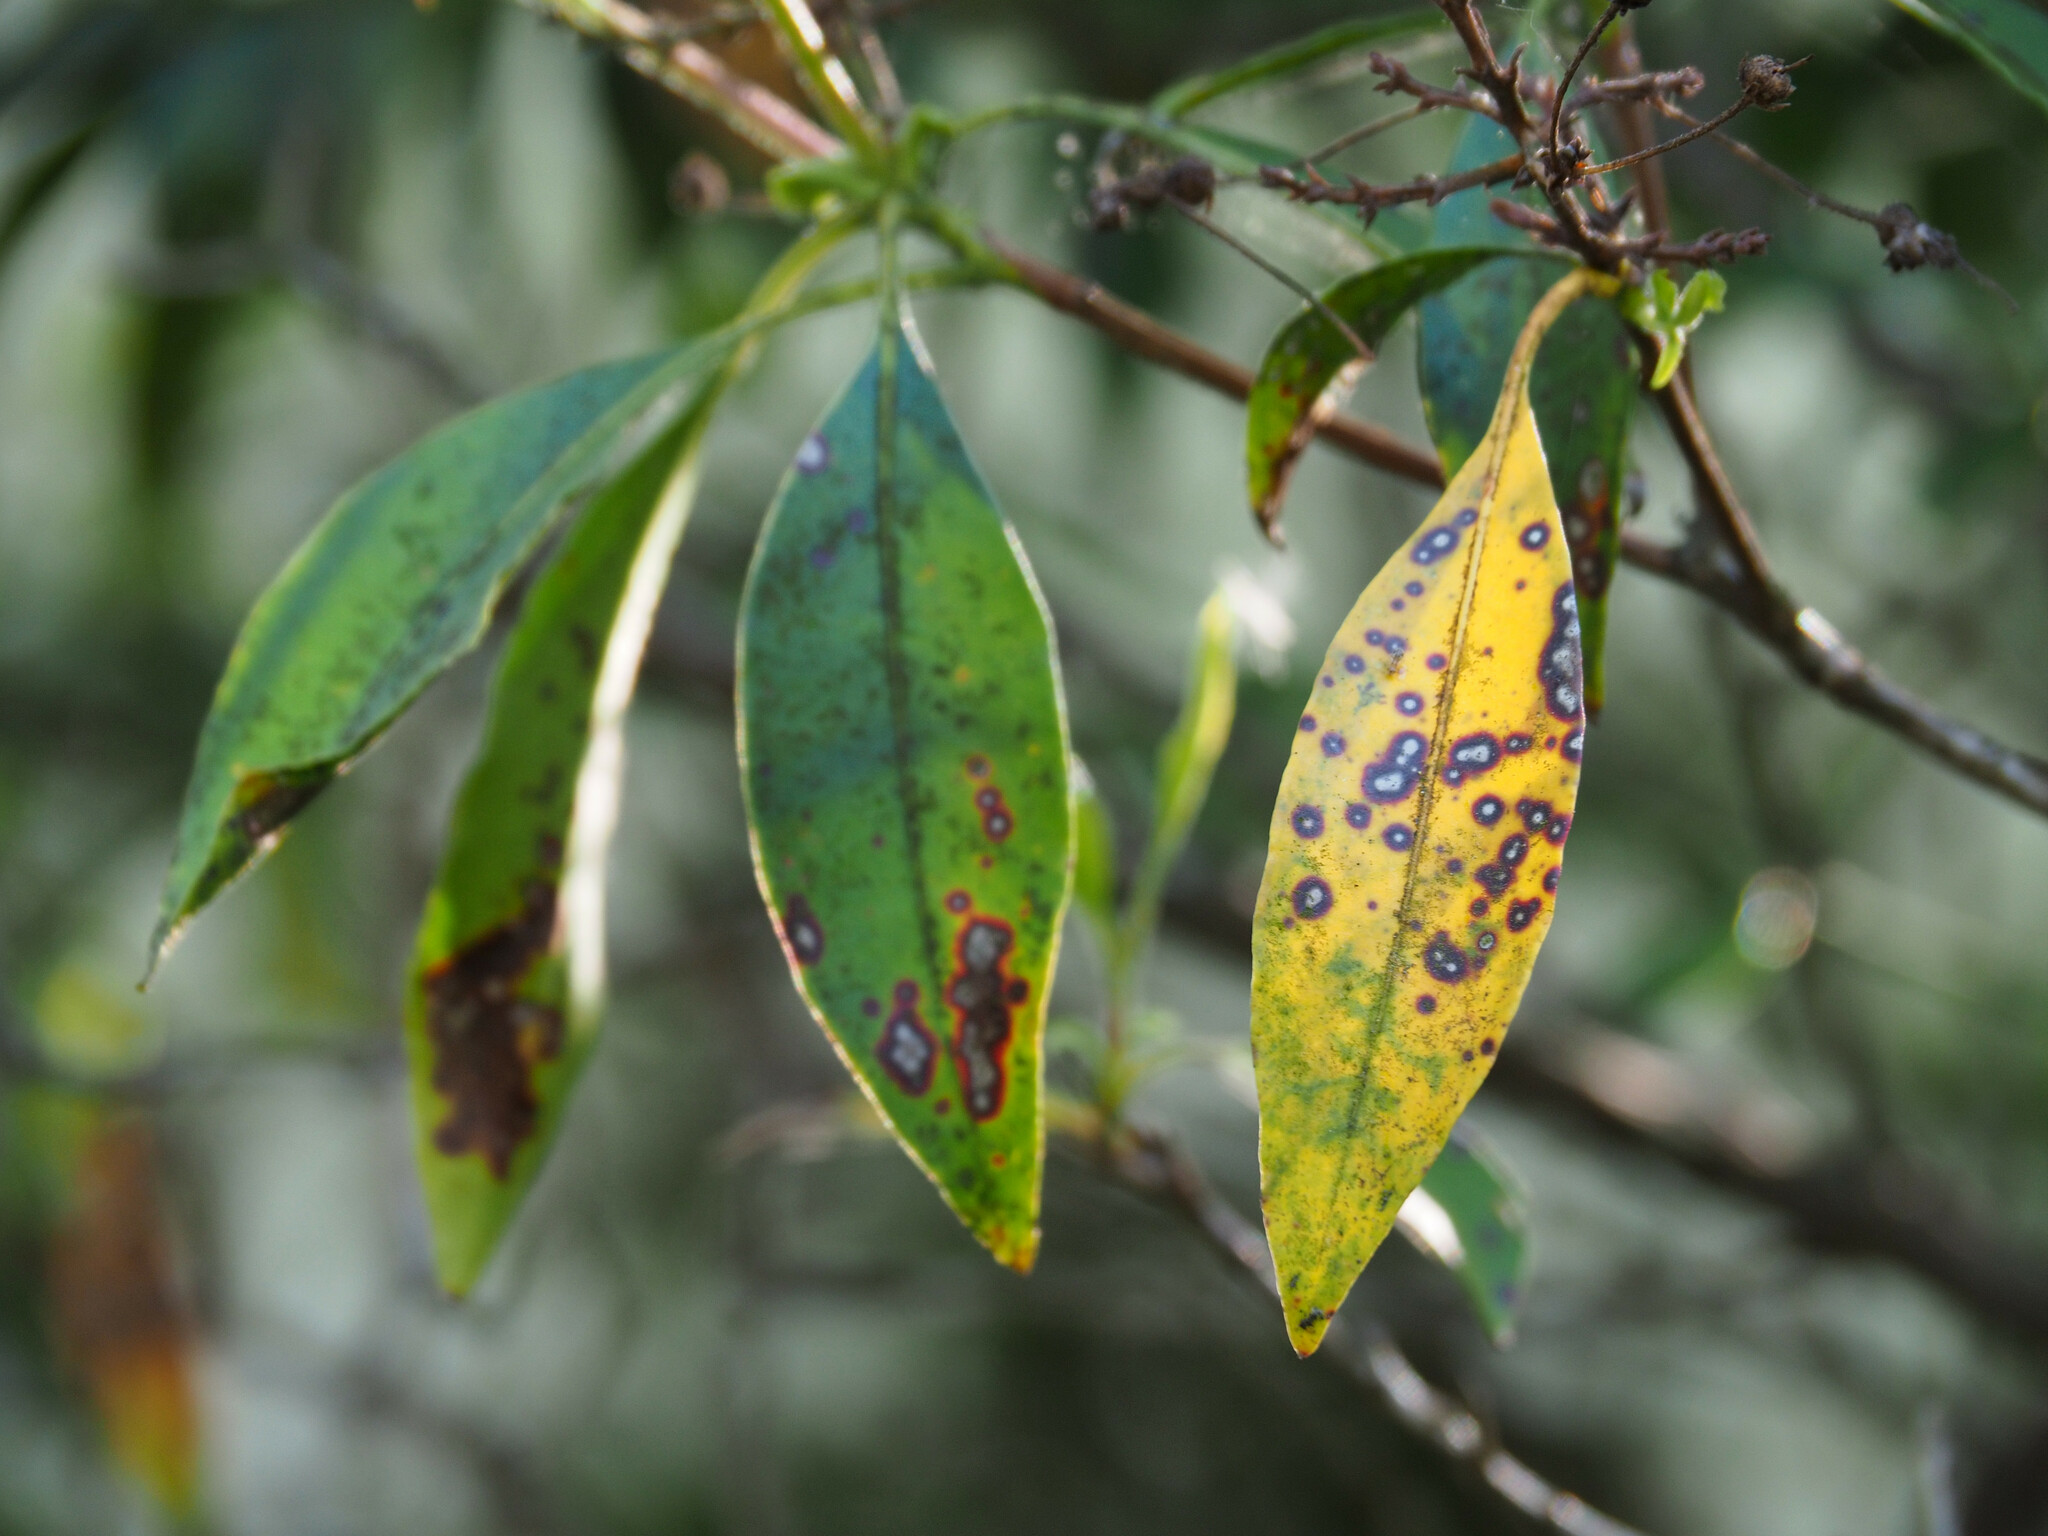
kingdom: Fungi
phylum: Ascomycota
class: Dothideomycetes
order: Mycosphaerellales
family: Mycosphaerellaceae
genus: Mycosphaerella
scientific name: Mycosphaerella colorata
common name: Mountain laurel leaf spot
